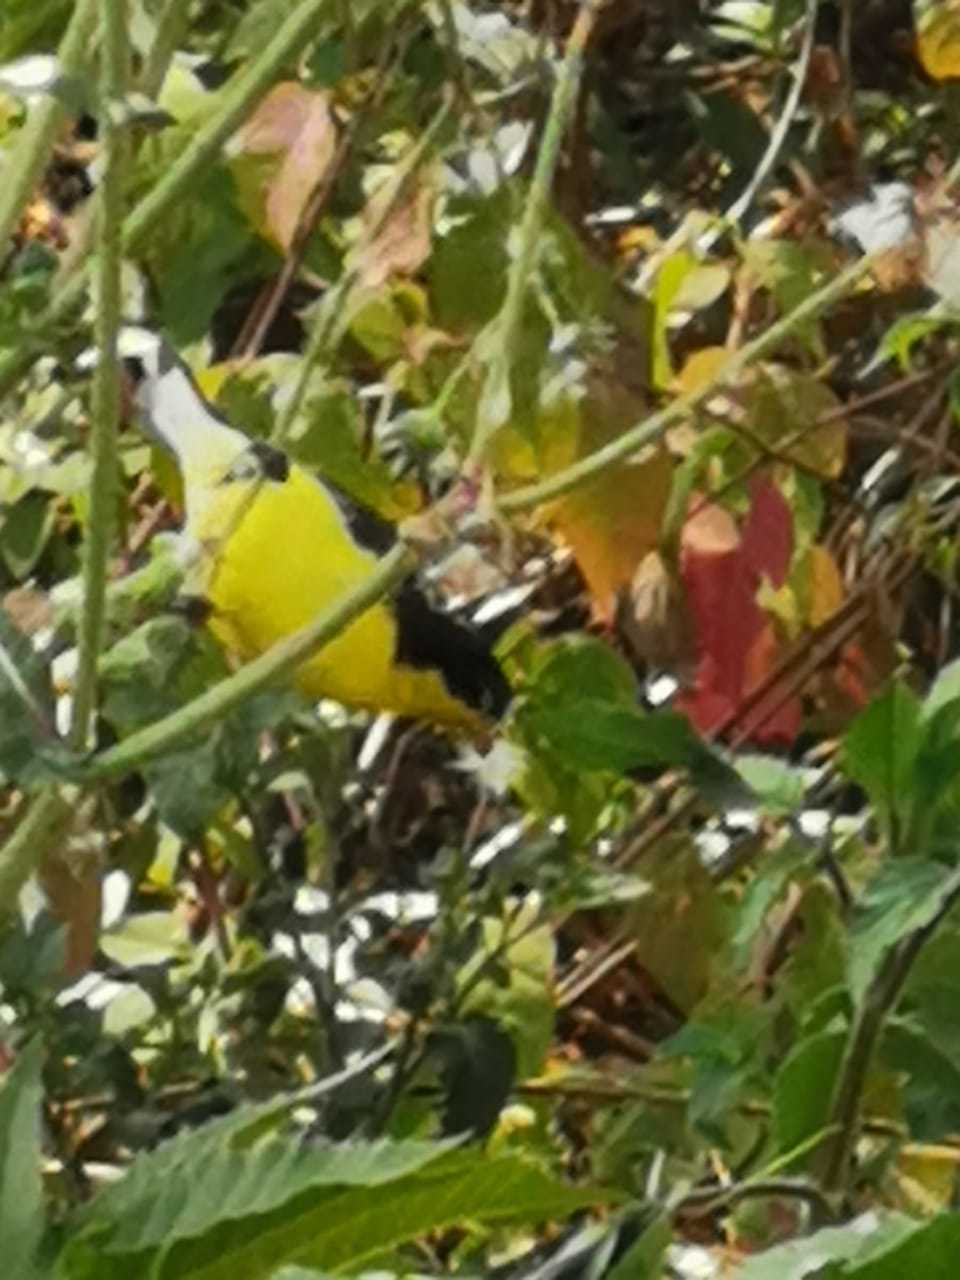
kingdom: Animalia
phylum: Chordata
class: Aves
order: Passeriformes
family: Fringillidae
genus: Spinus
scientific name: Spinus psaltria
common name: Lesser goldfinch
